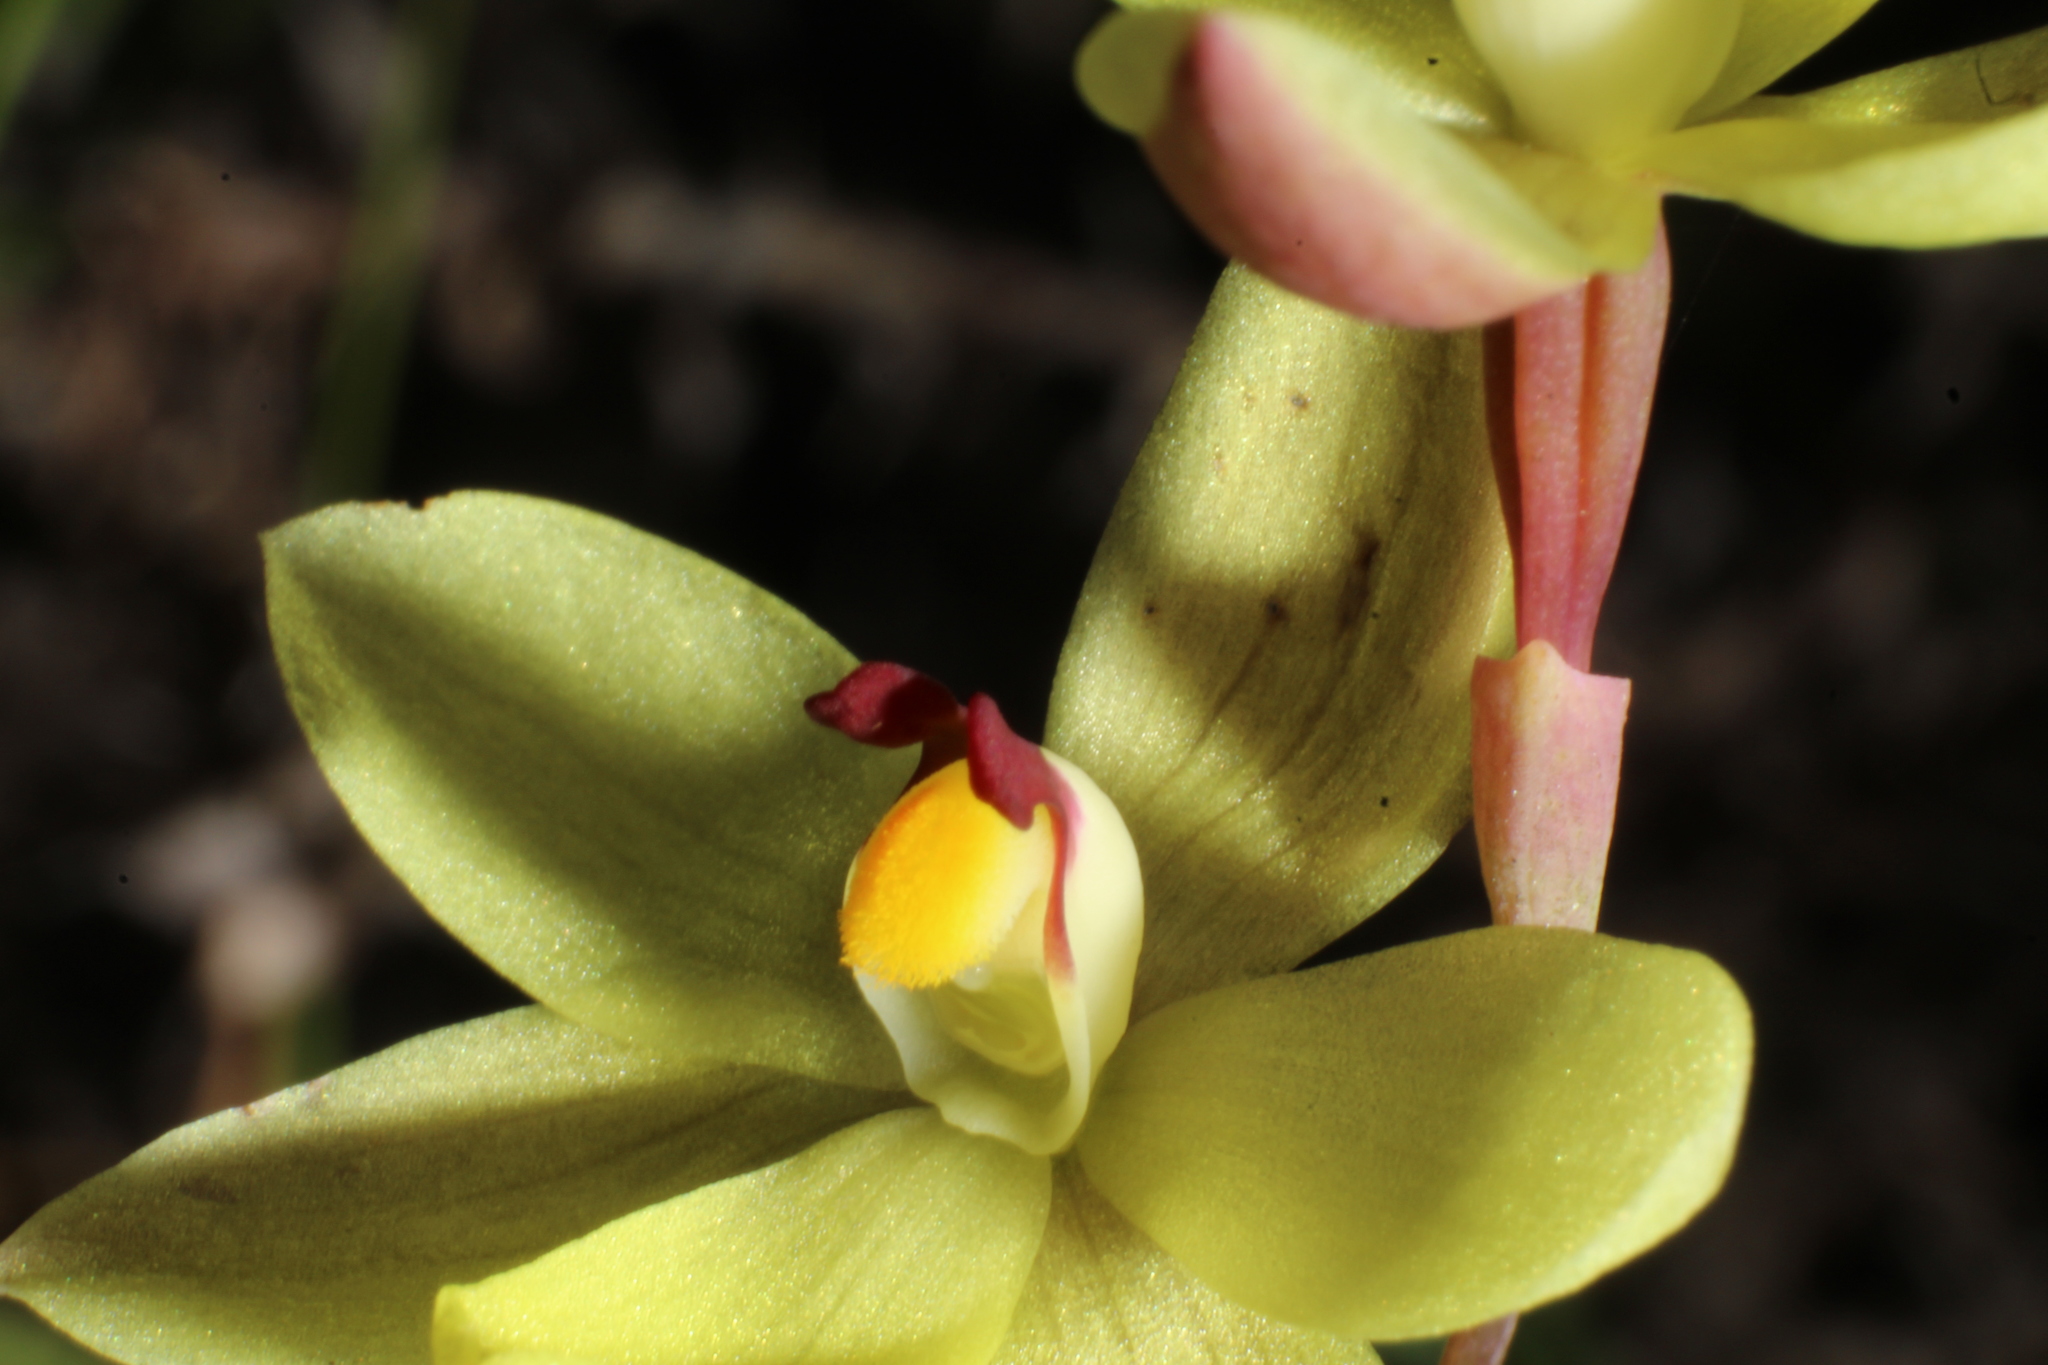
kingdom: Plantae
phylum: Tracheophyta
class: Liliopsida
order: Asparagales
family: Orchidaceae
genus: Thelymitra
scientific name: Thelymitra antennifera
